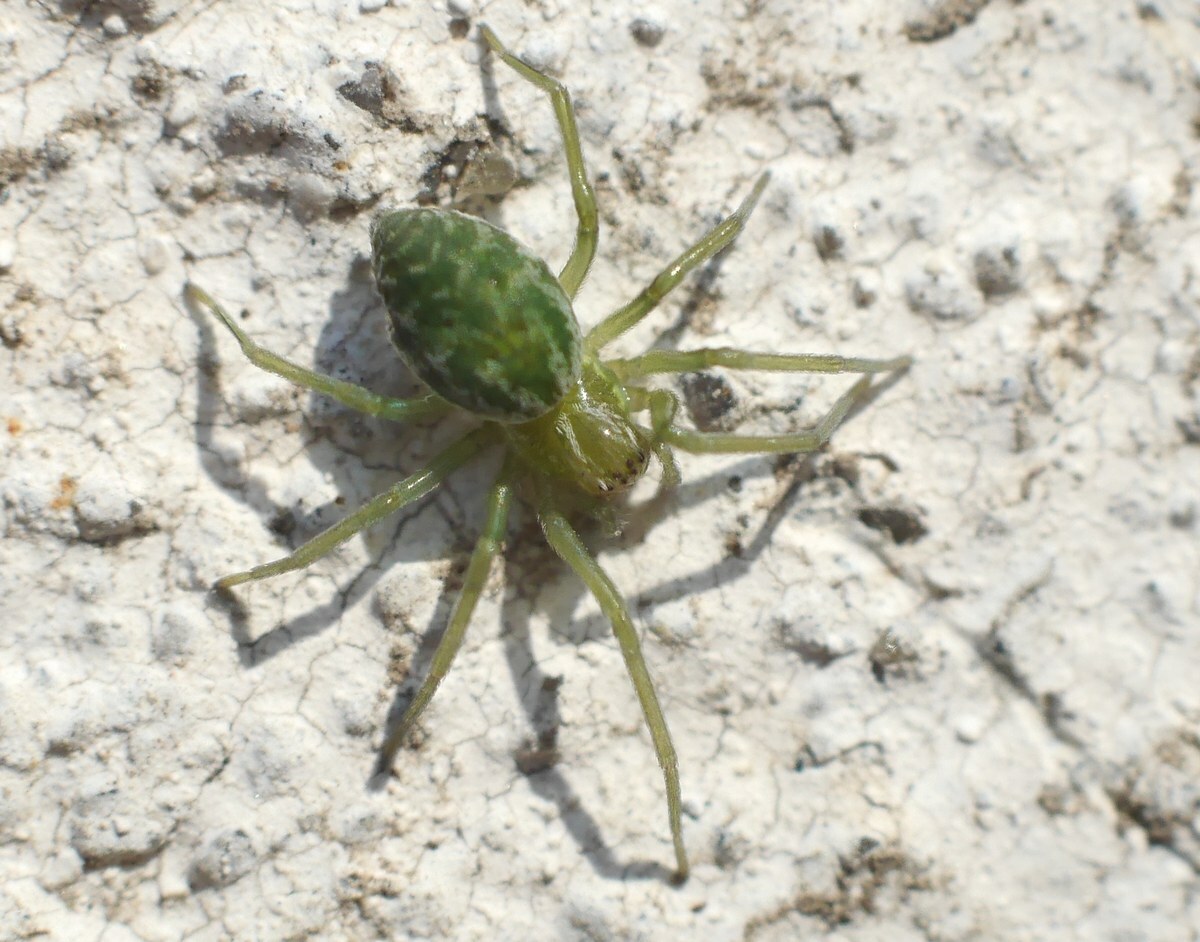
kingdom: Animalia
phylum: Arthropoda
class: Arachnida
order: Araneae
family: Dictynidae
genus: Nigma
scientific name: Nigma walckenaeri
